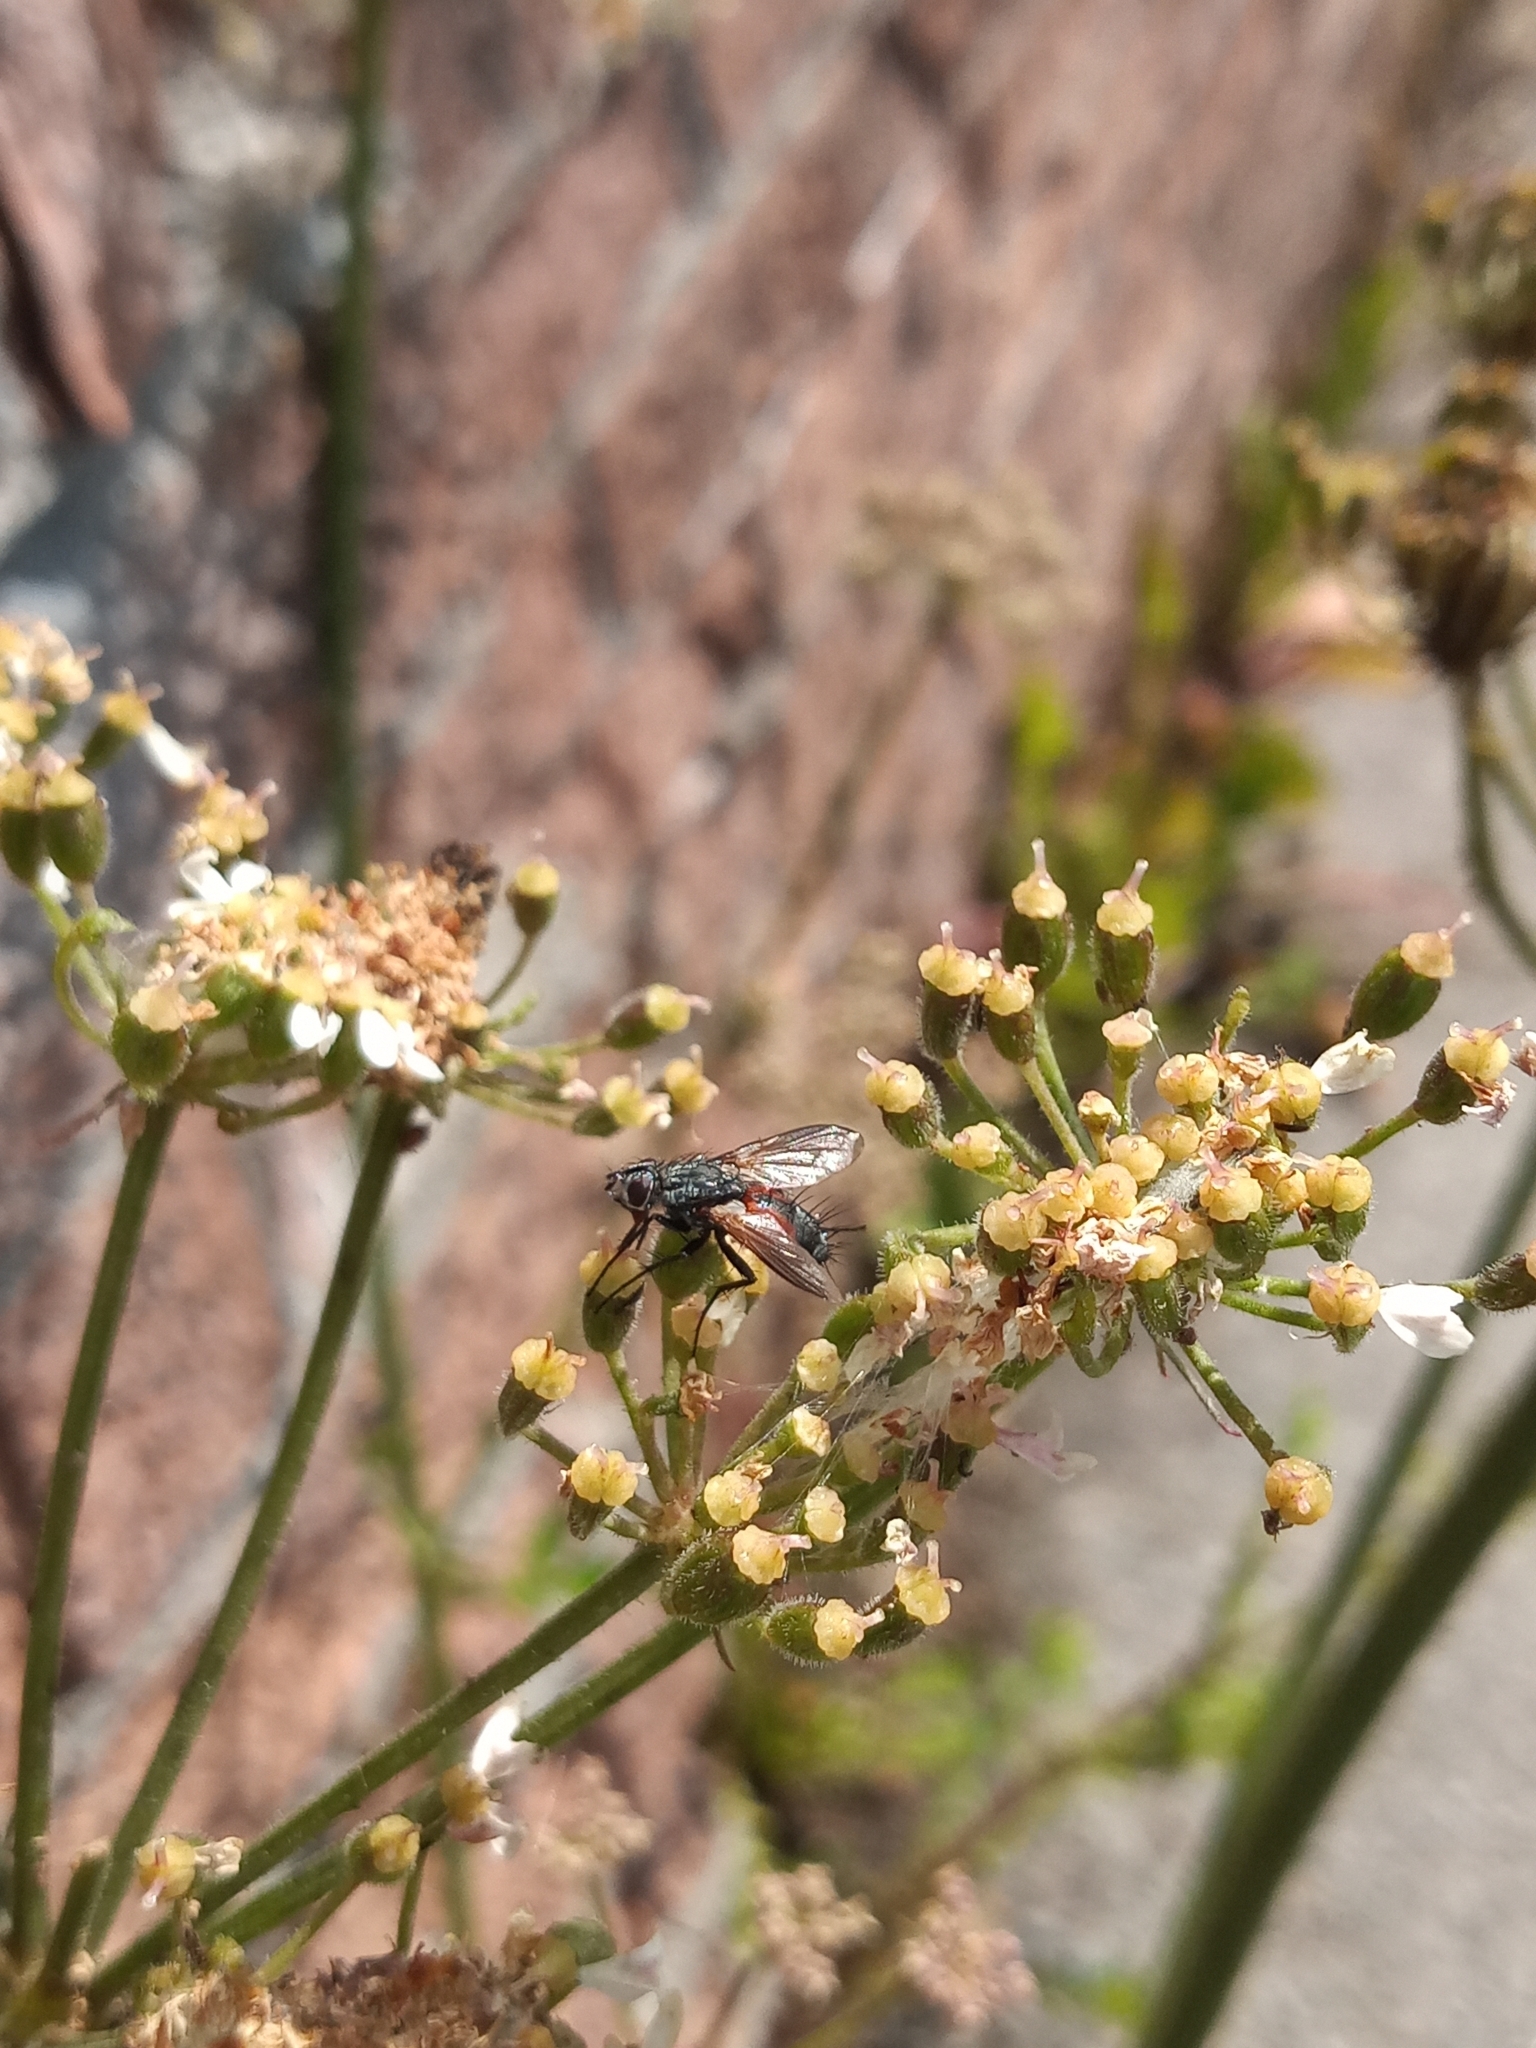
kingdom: Animalia
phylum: Arthropoda
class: Insecta
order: Diptera
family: Tachinidae
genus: Eriothrix
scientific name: Eriothrix rufomaculatus
